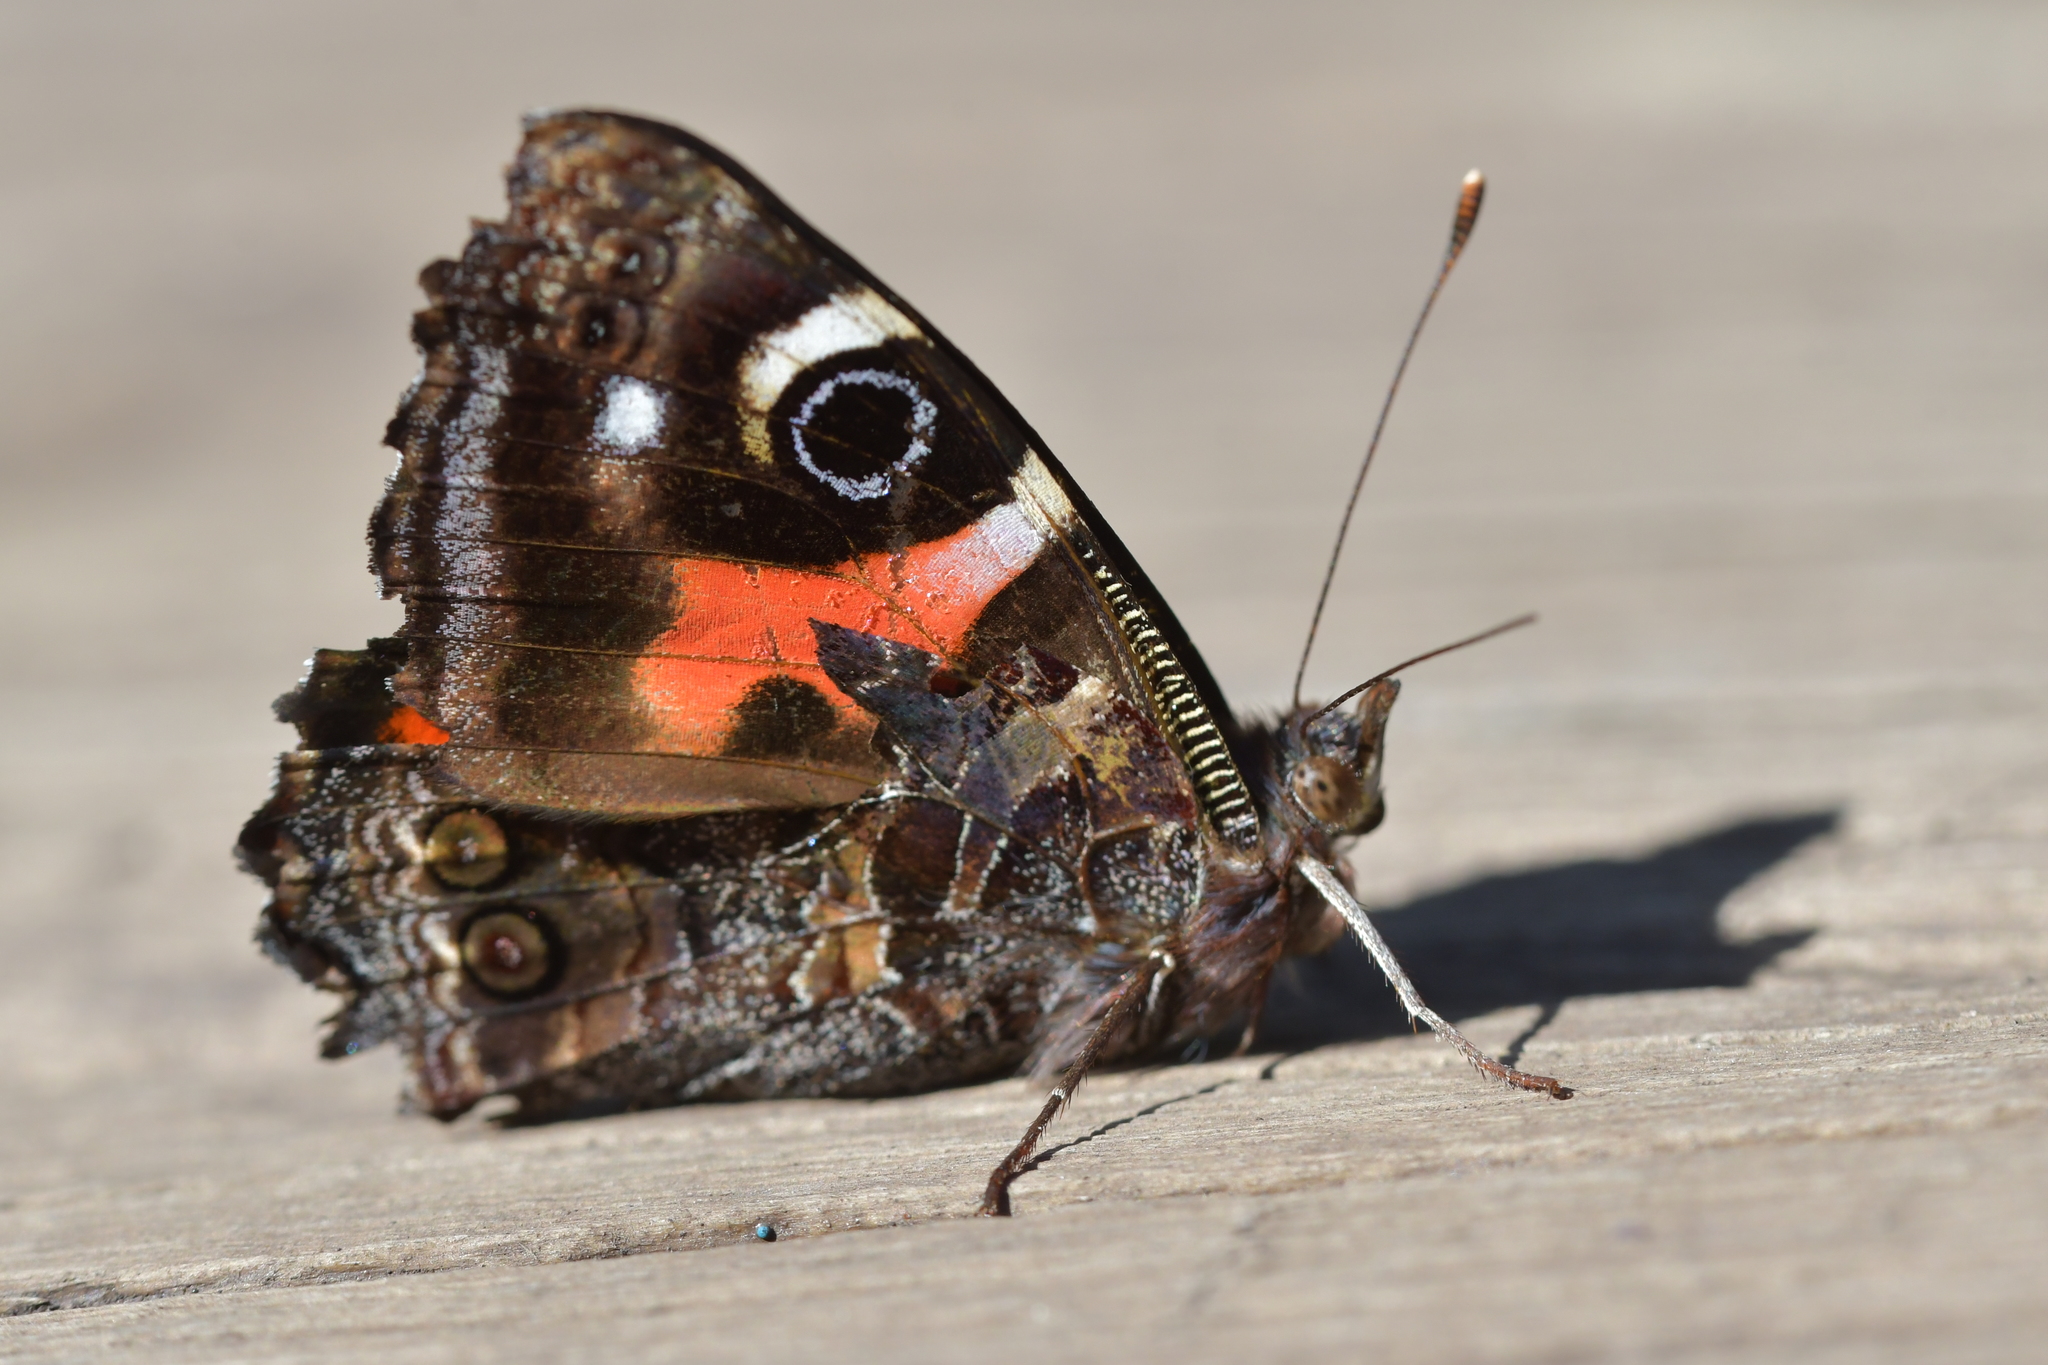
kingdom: Animalia
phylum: Arthropoda
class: Insecta
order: Lepidoptera
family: Nymphalidae
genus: Vanessa
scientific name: Vanessa gonerilla
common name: New zealand red admiral
